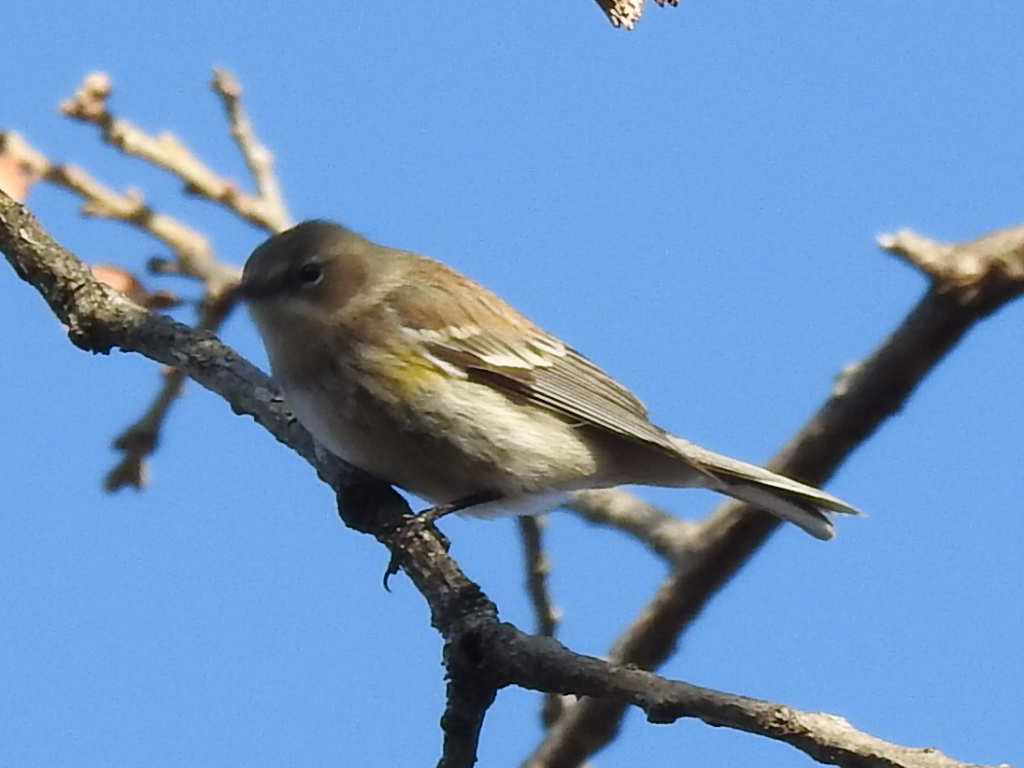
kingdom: Animalia
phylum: Chordata
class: Aves
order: Passeriformes
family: Parulidae
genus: Setophaga
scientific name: Setophaga coronata
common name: Myrtle warbler
